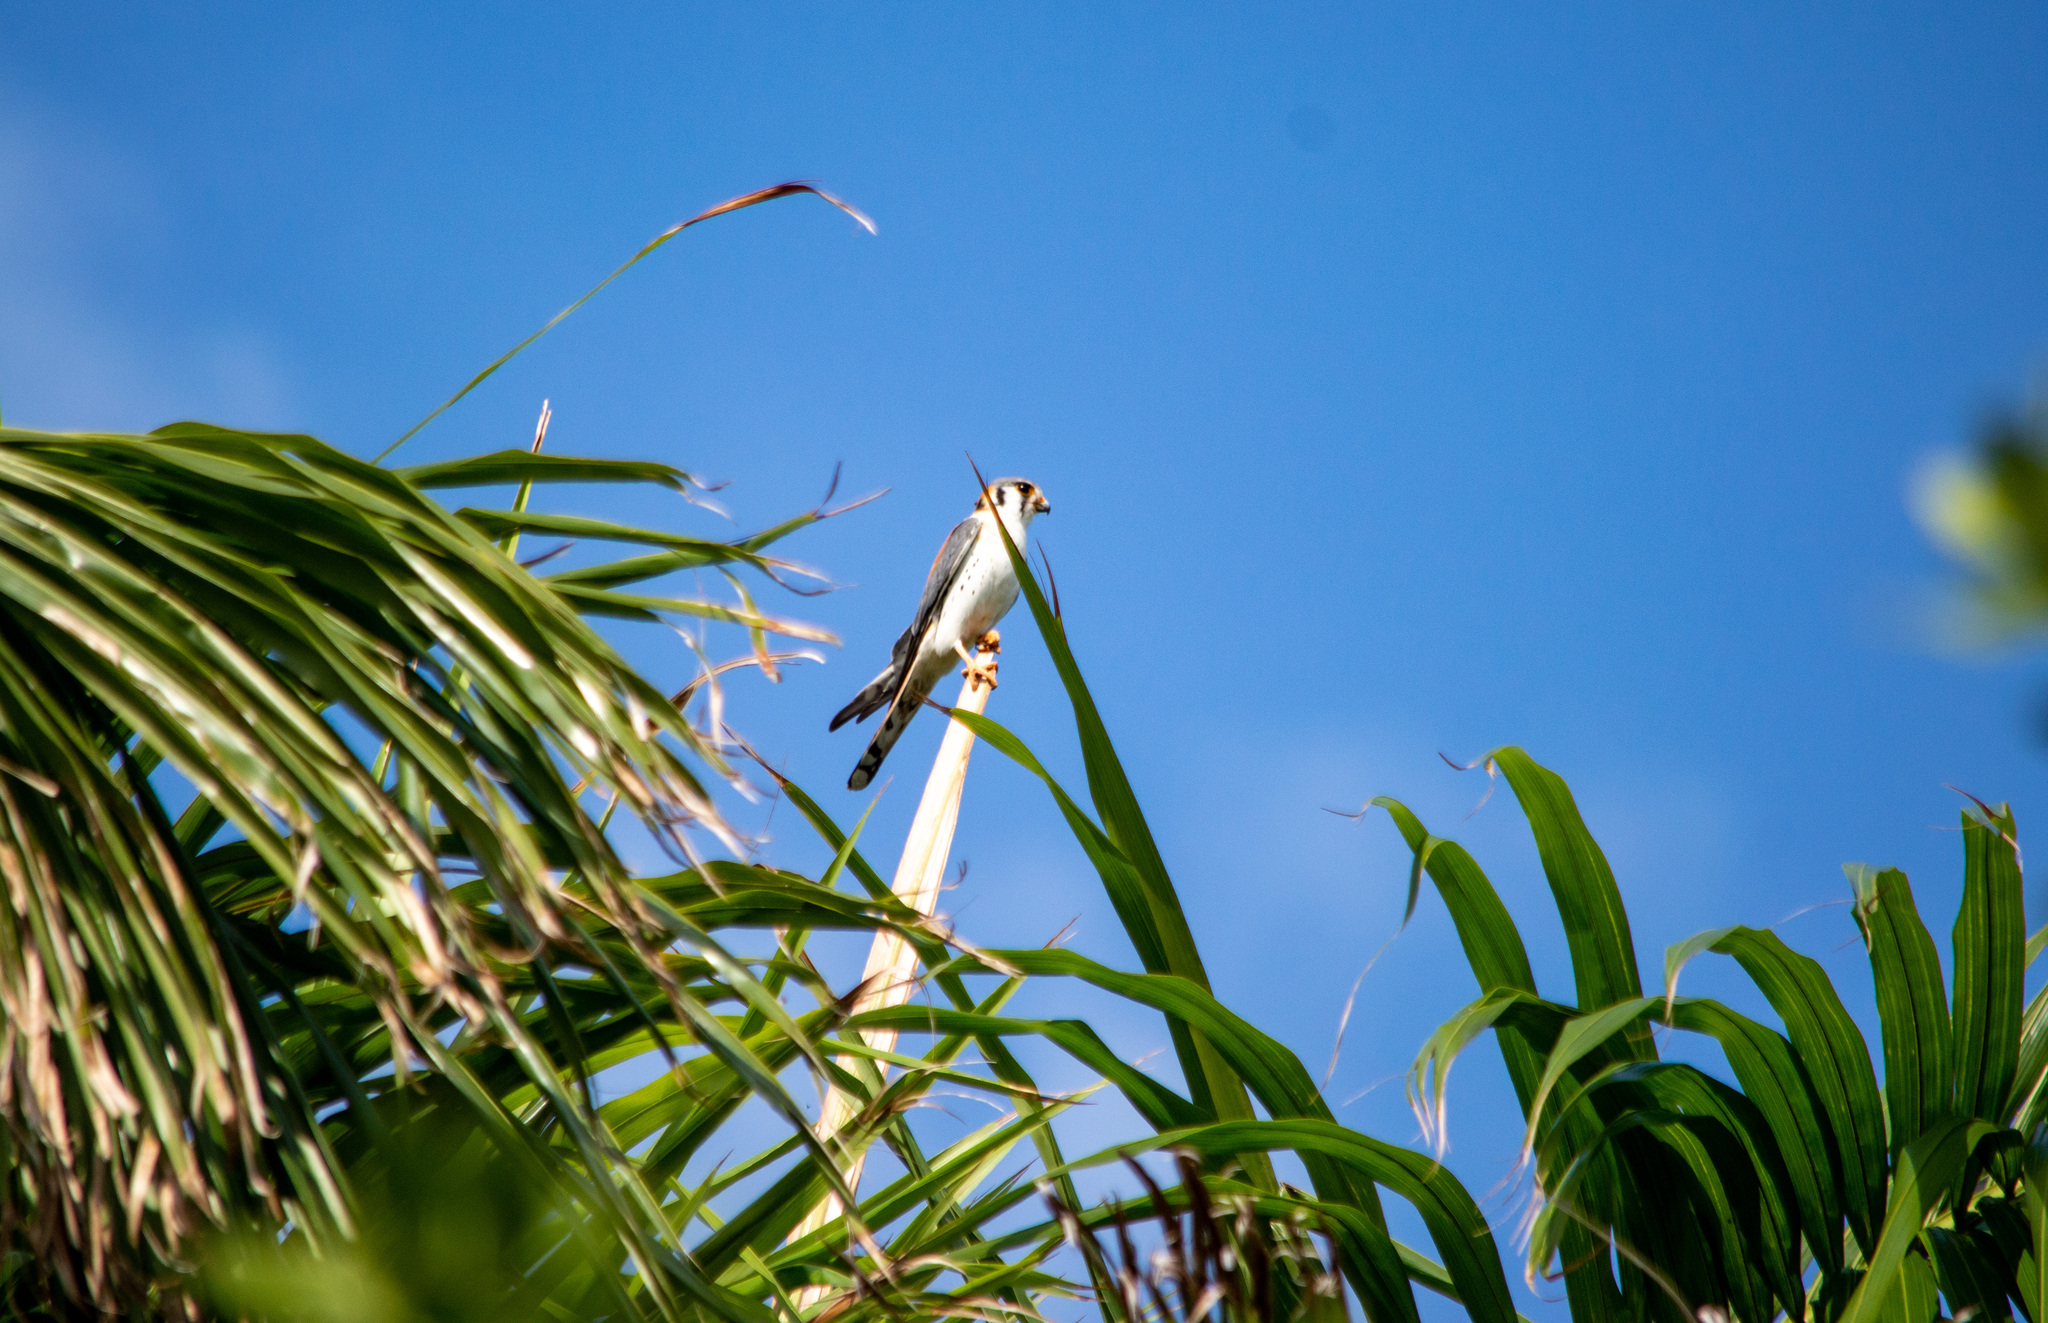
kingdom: Animalia
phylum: Chordata
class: Aves
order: Falconiformes
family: Falconidae
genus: Falco
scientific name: Falco sparverius
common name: American kestrel
